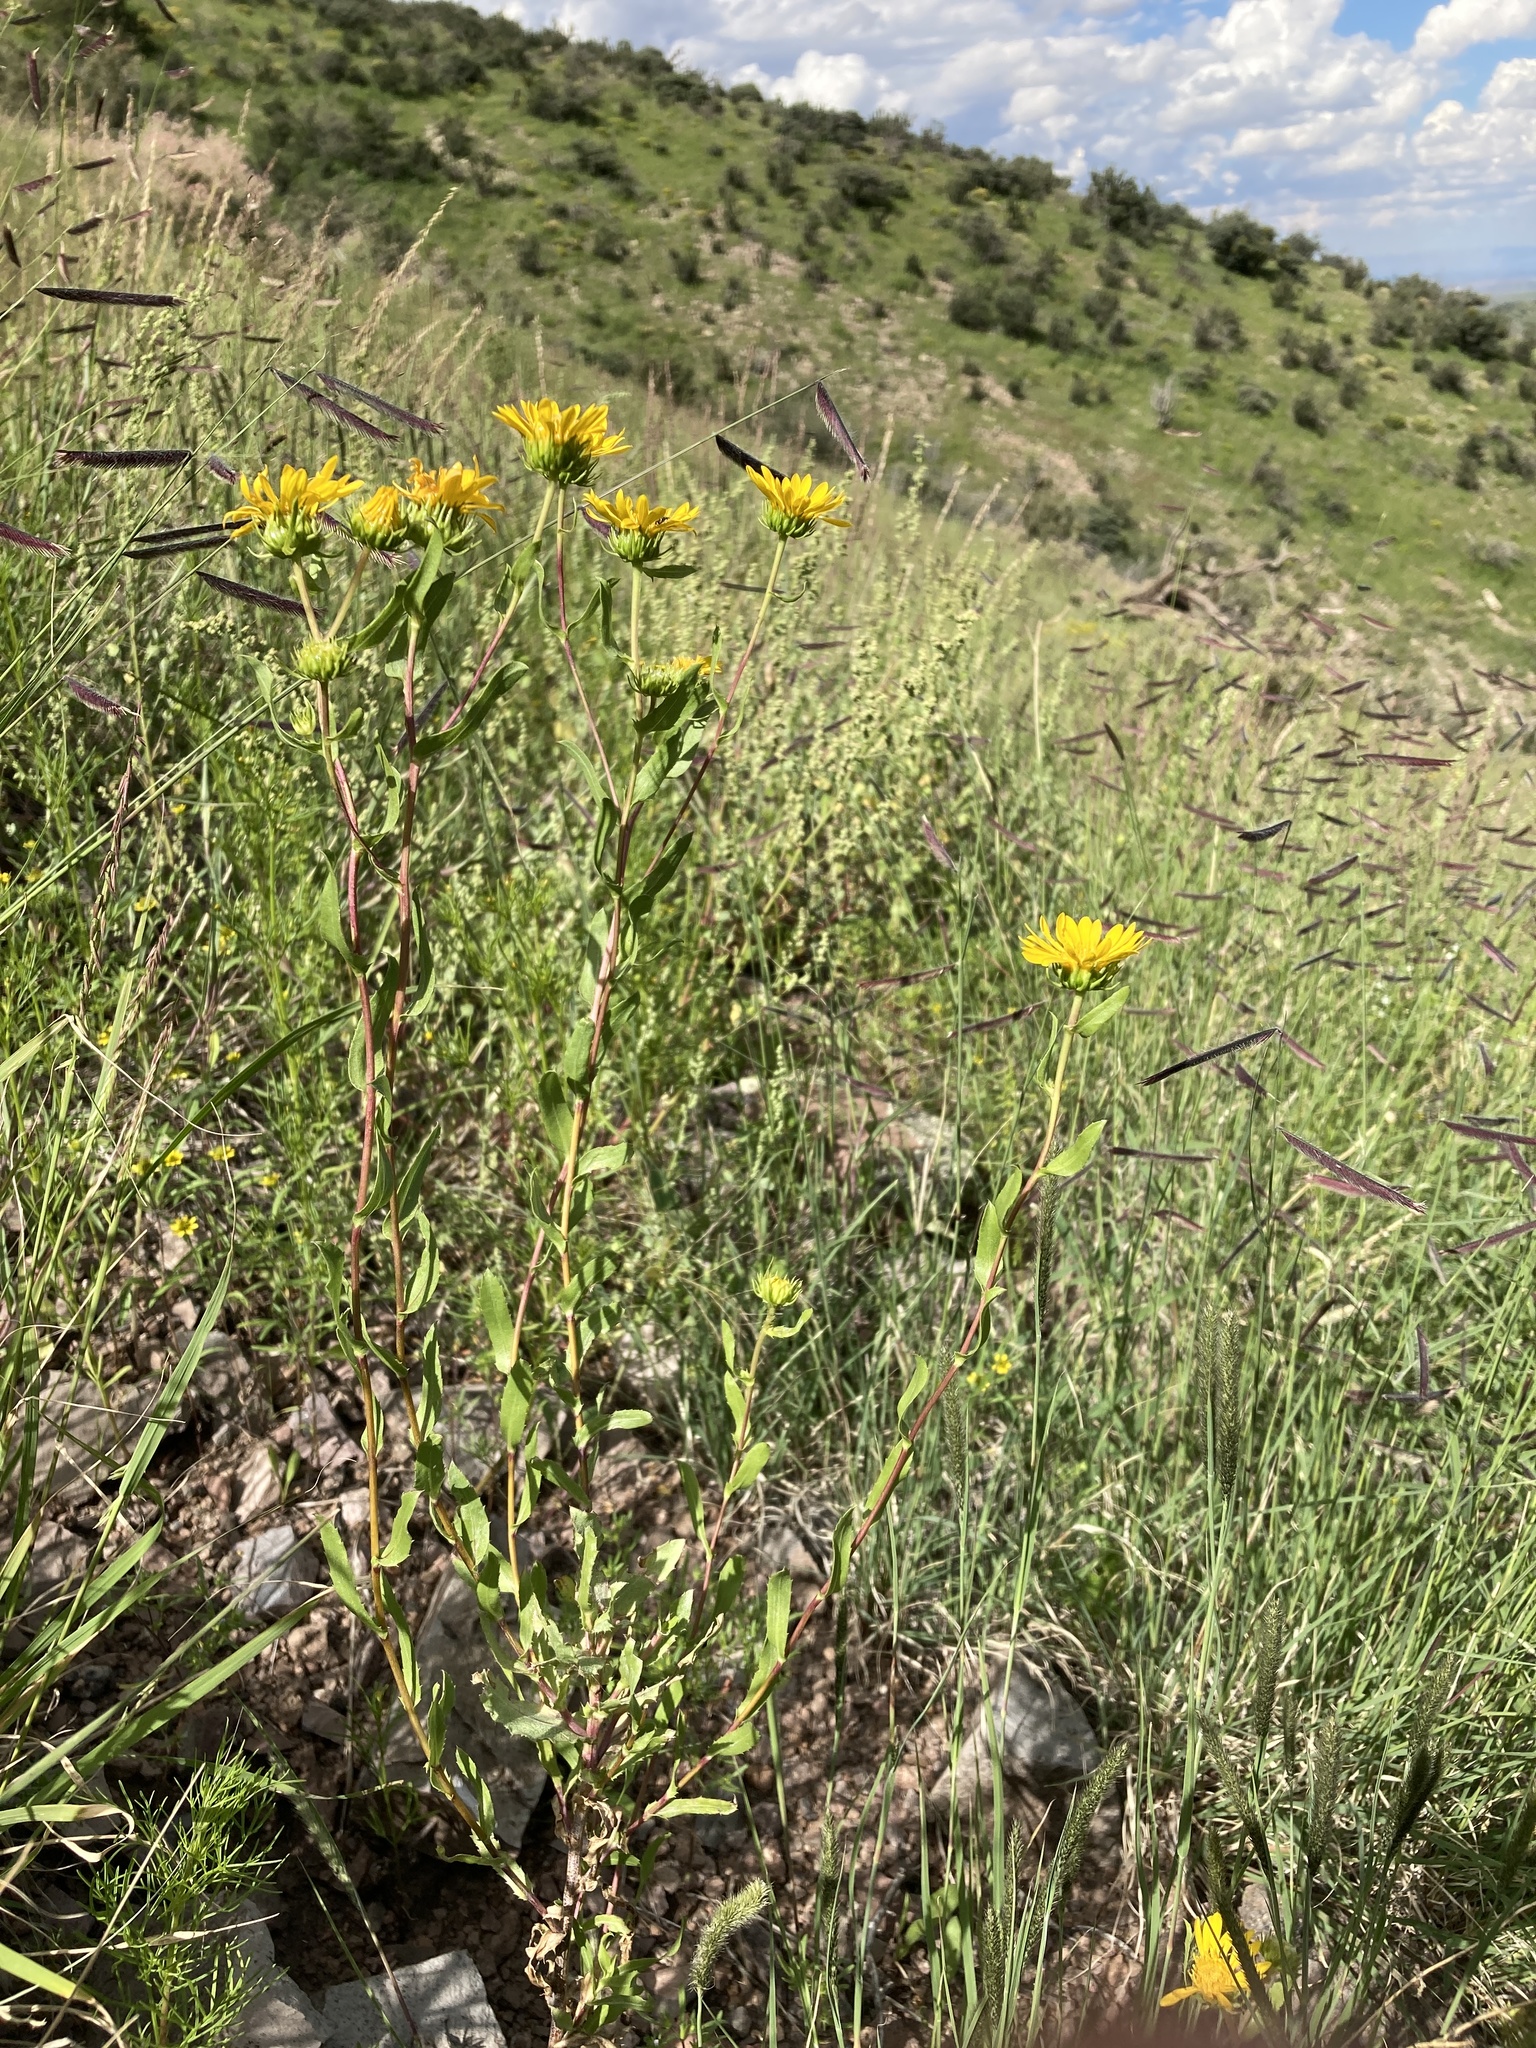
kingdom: Plantae
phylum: Tracheophyta
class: Magnoliopsida
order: Asterales
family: Asteraceae
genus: Grindelia
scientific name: Grindelia arizonica
